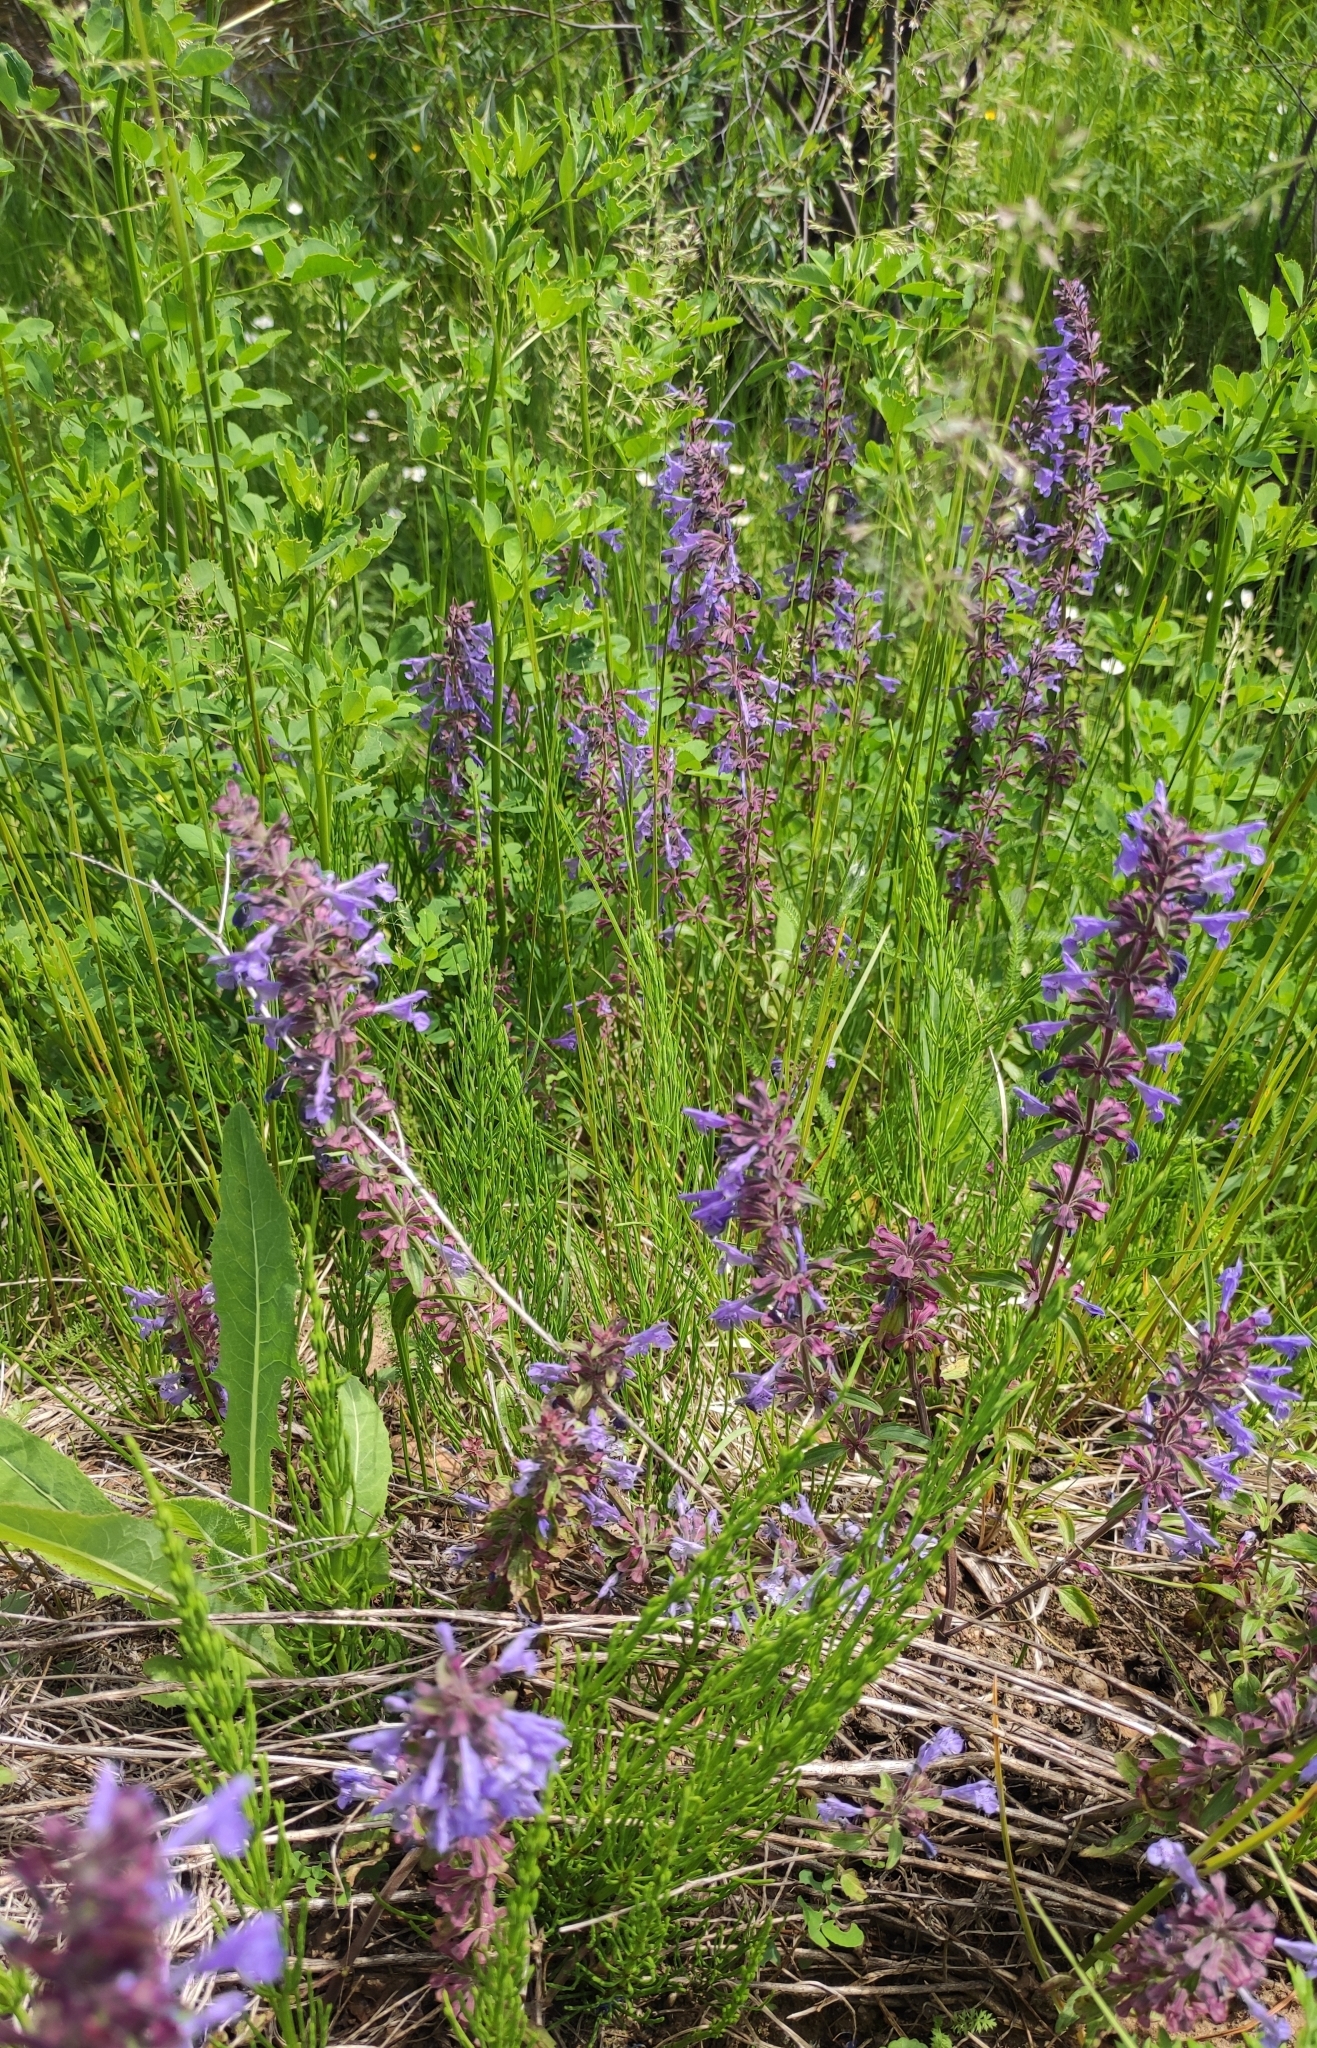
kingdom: Plantae
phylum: Tracheophyta
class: Magnoliopsida
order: Lamiales
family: Lamiaceae
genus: Dracocephalum
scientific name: Dracocephalum nutans
